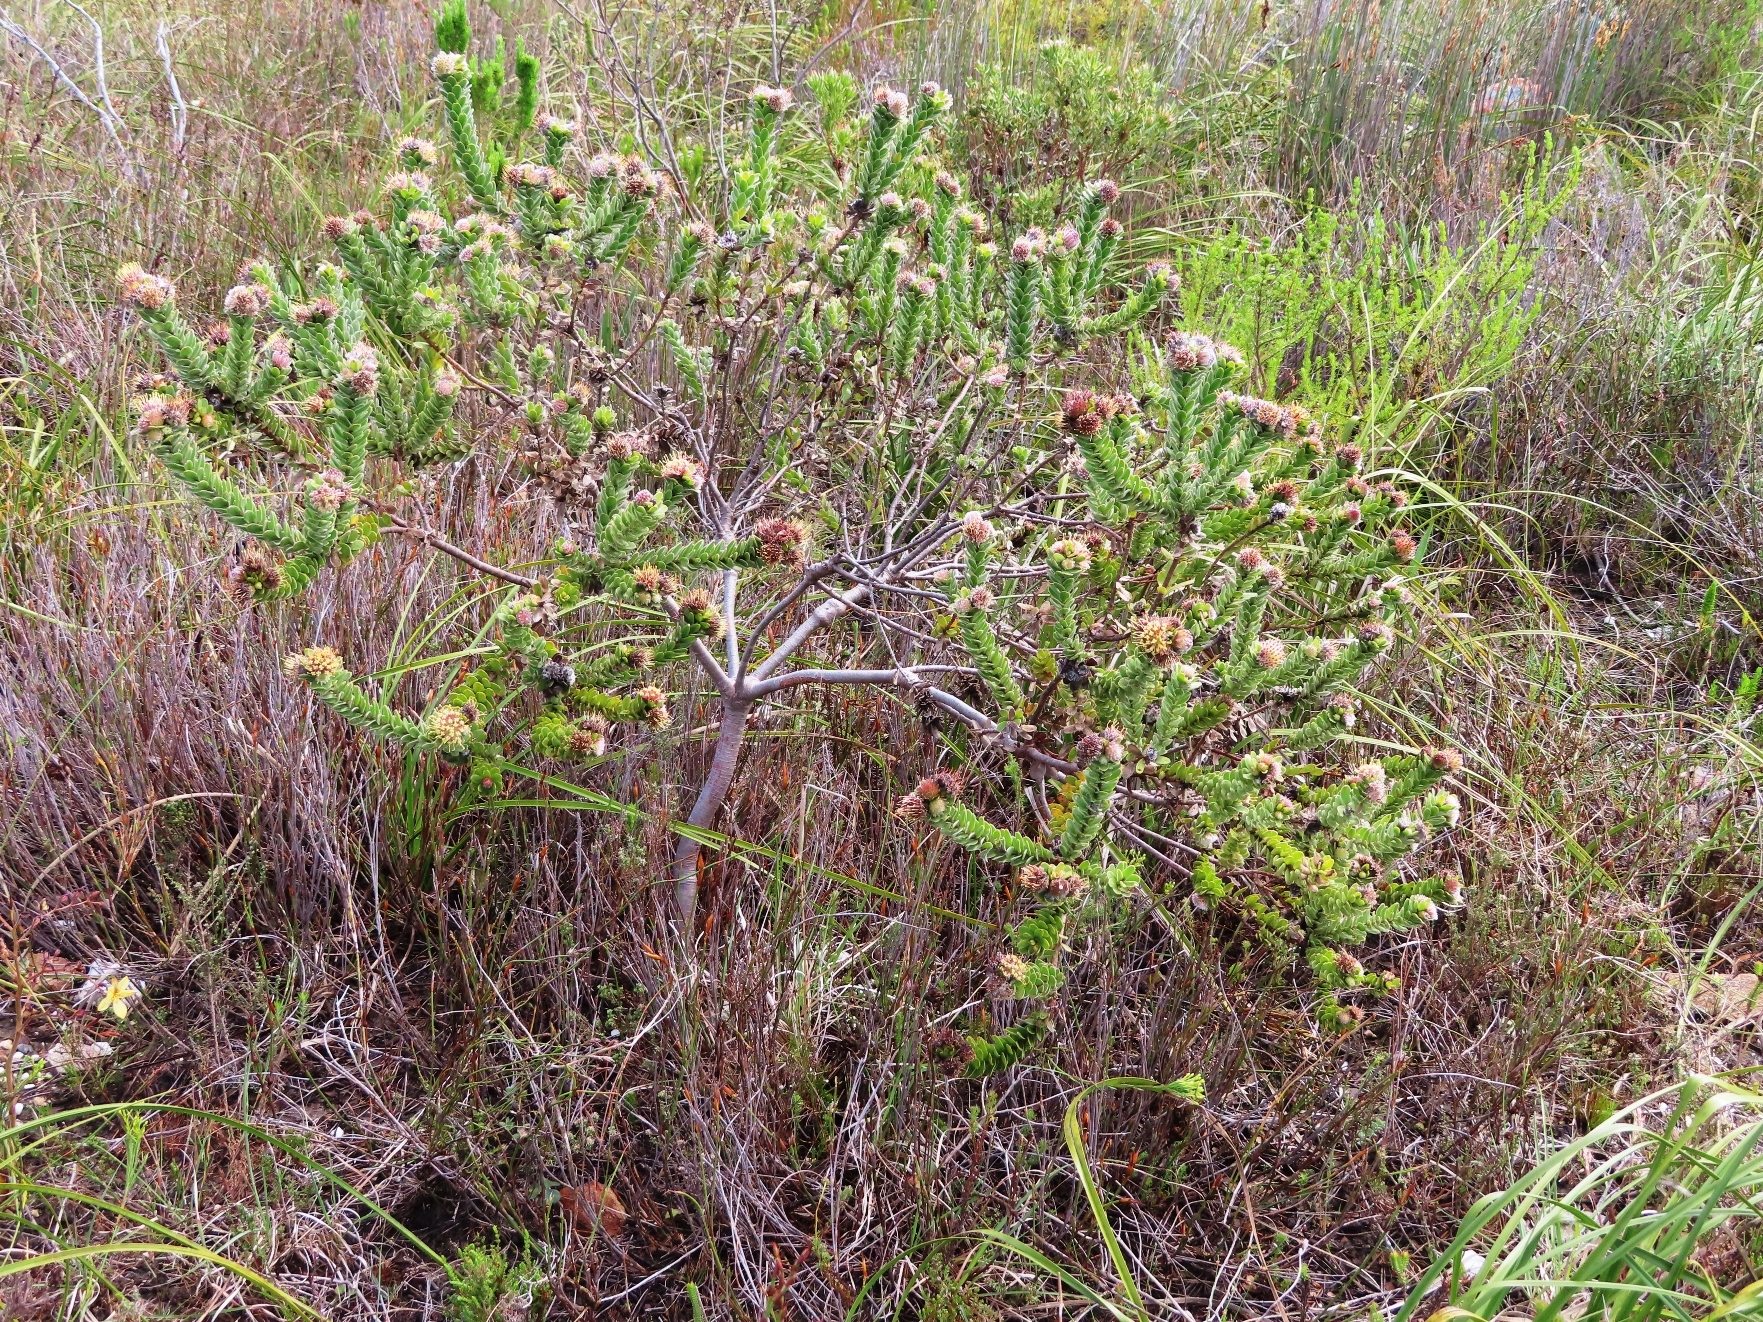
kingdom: Plantae
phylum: Tracheophyta
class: Magnoliopsida
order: Proteales
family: Proteaceae
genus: Leucospermum
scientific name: Leucospermum truncatulum
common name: Oval-leaf pincushion
